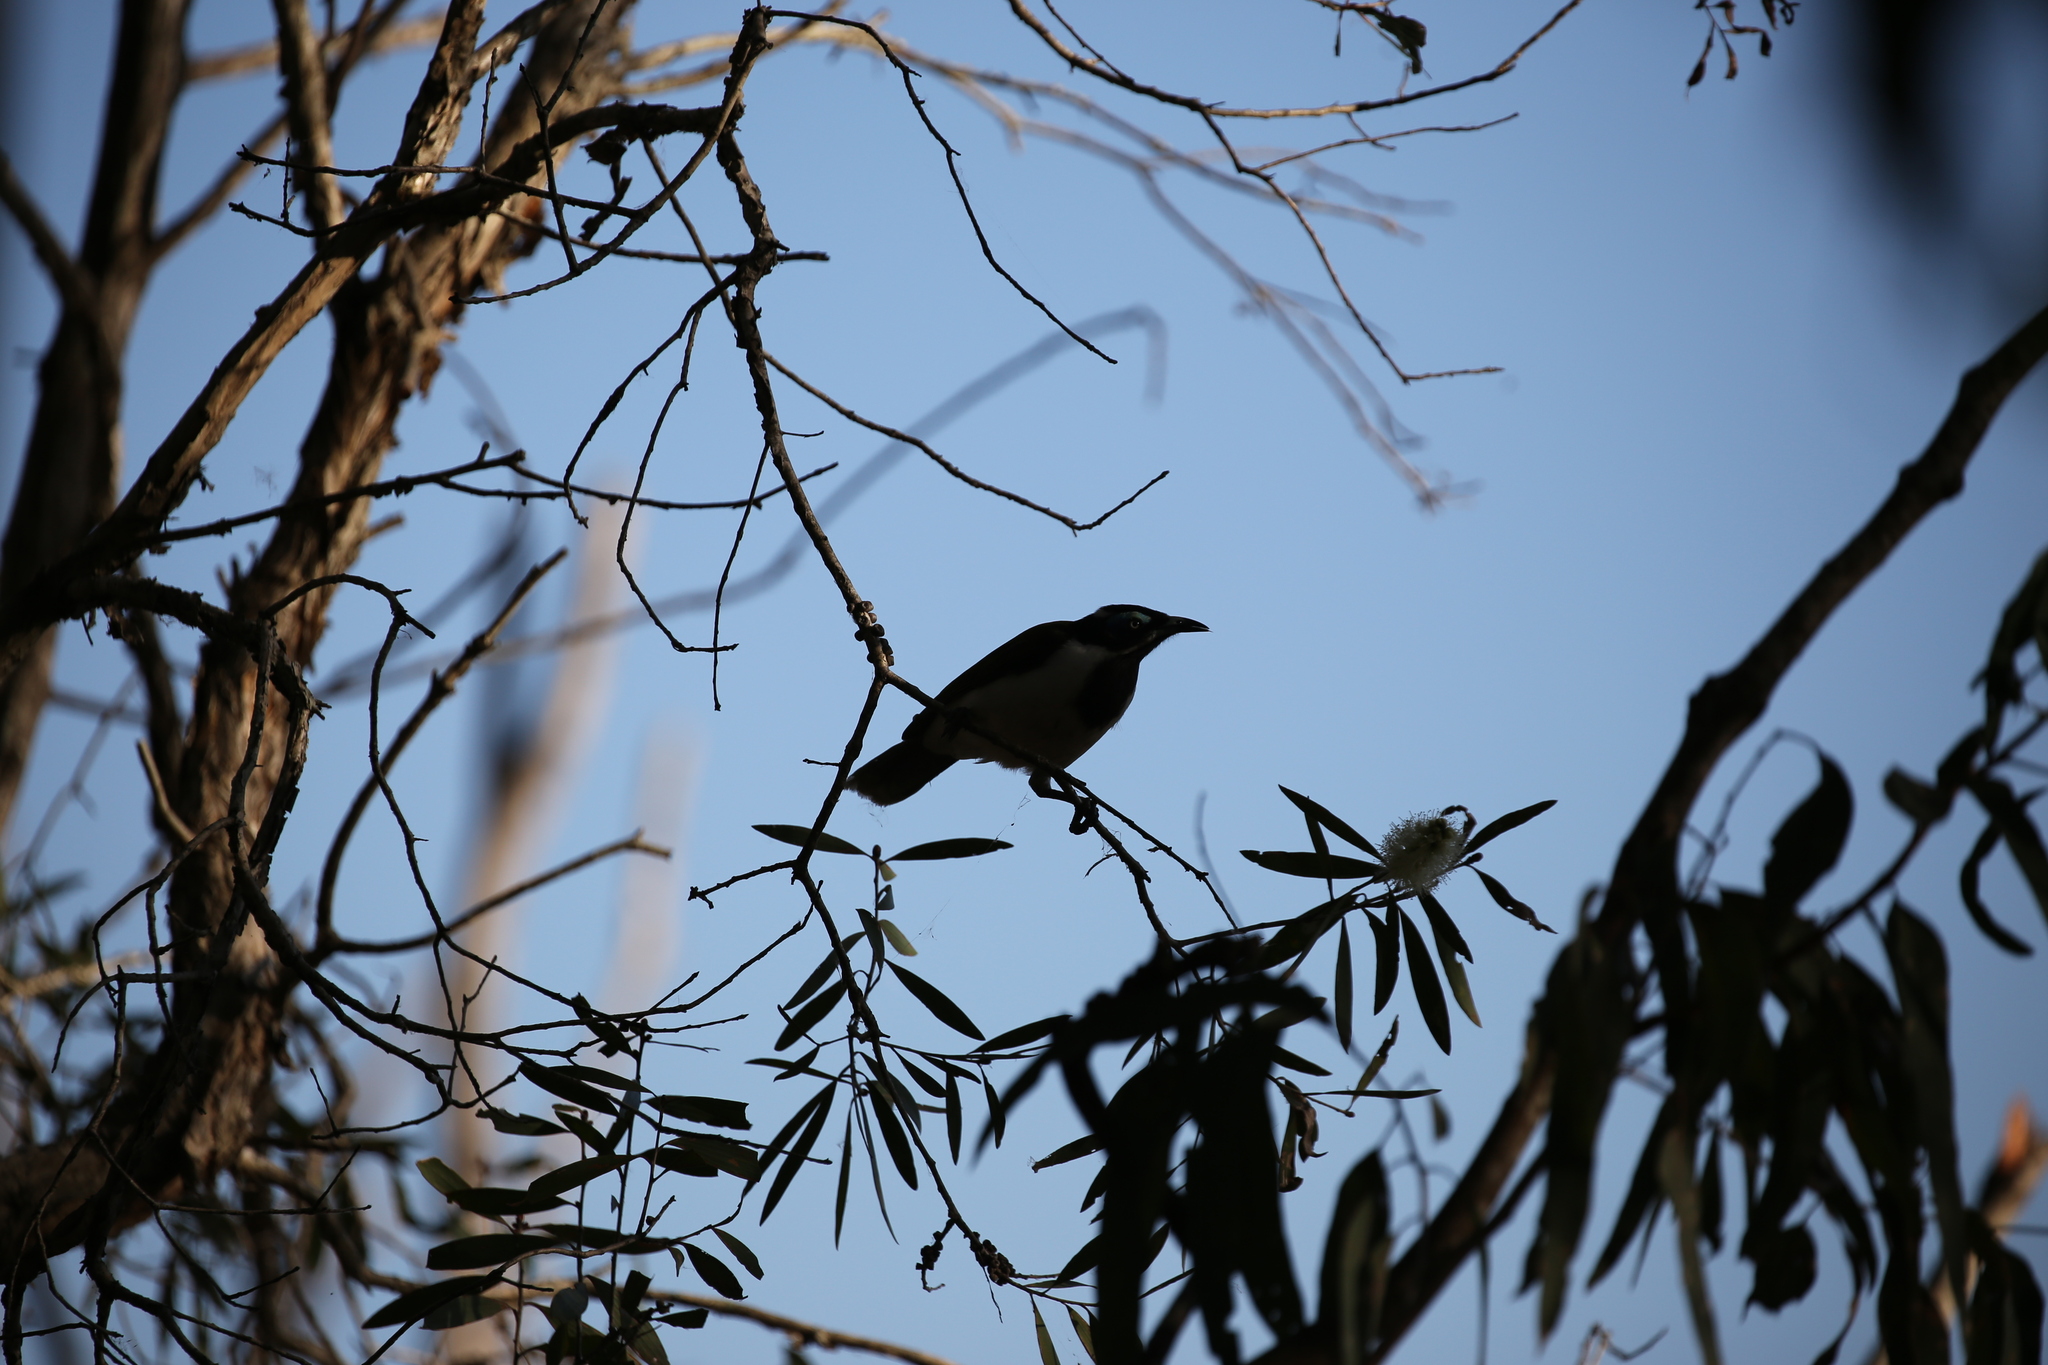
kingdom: Animalia
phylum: Chordata
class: Aves
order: Passeriformes
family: Meliphagidae
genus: Entomyzon
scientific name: Entomyzon cyanotis
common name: Blue-faced honeyeater
